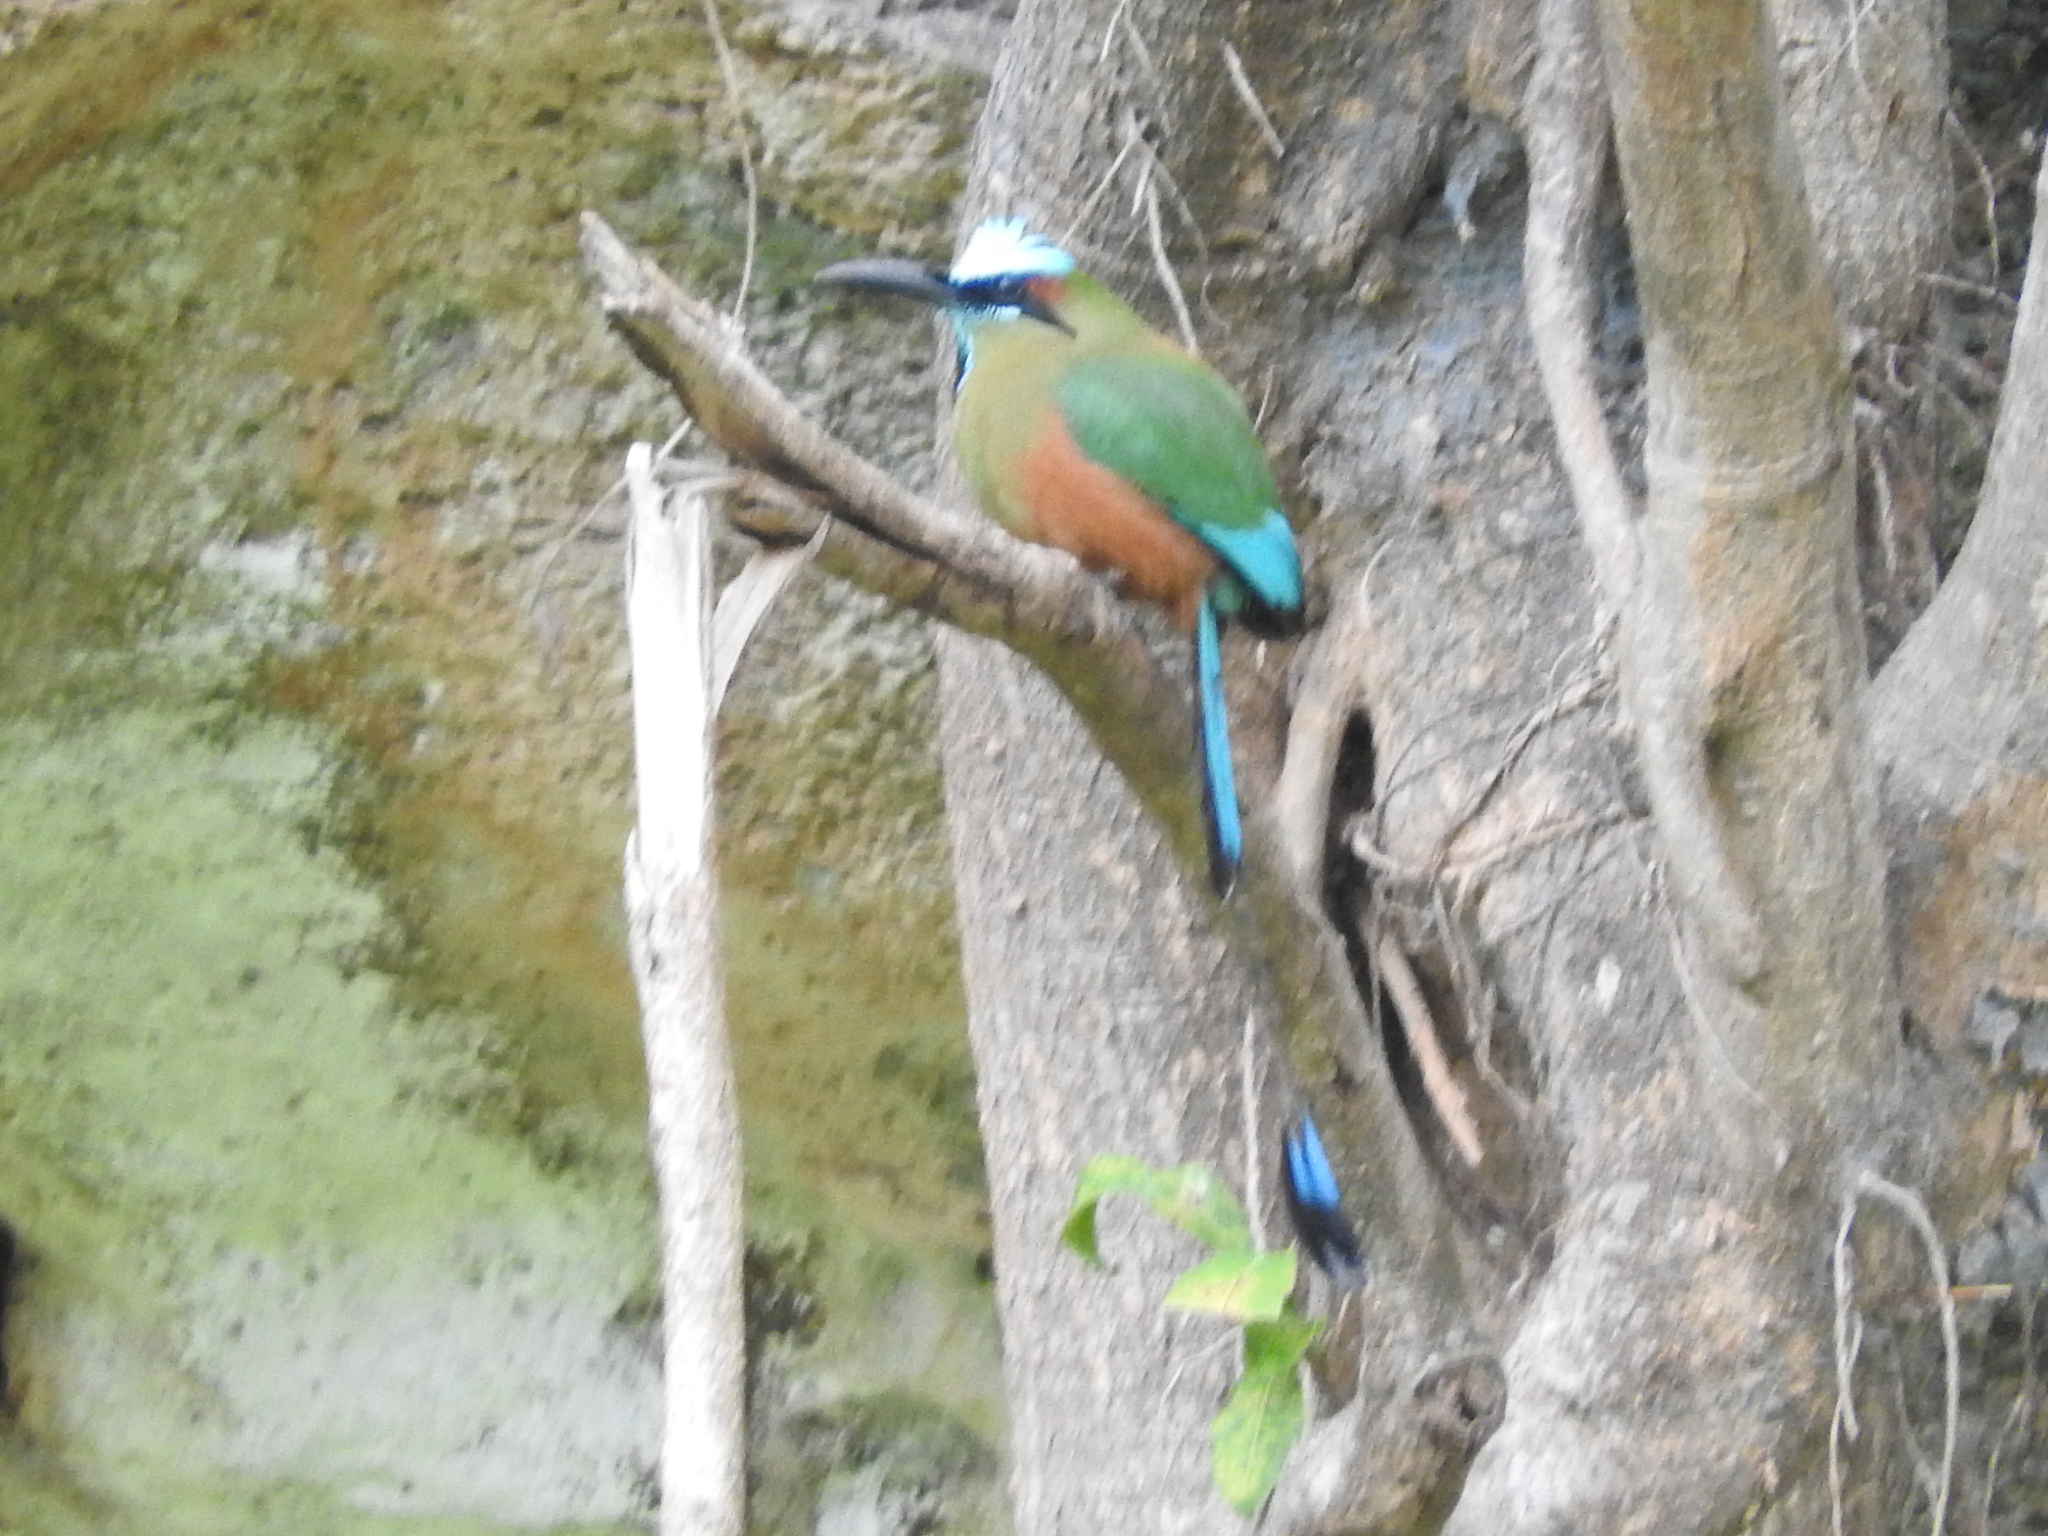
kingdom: Animalia
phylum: Chordata
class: Aves
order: Coraciiformes
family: Momotidae
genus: Eumomota
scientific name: Eumomota superciliosa
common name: Turquoise-browed motmot
